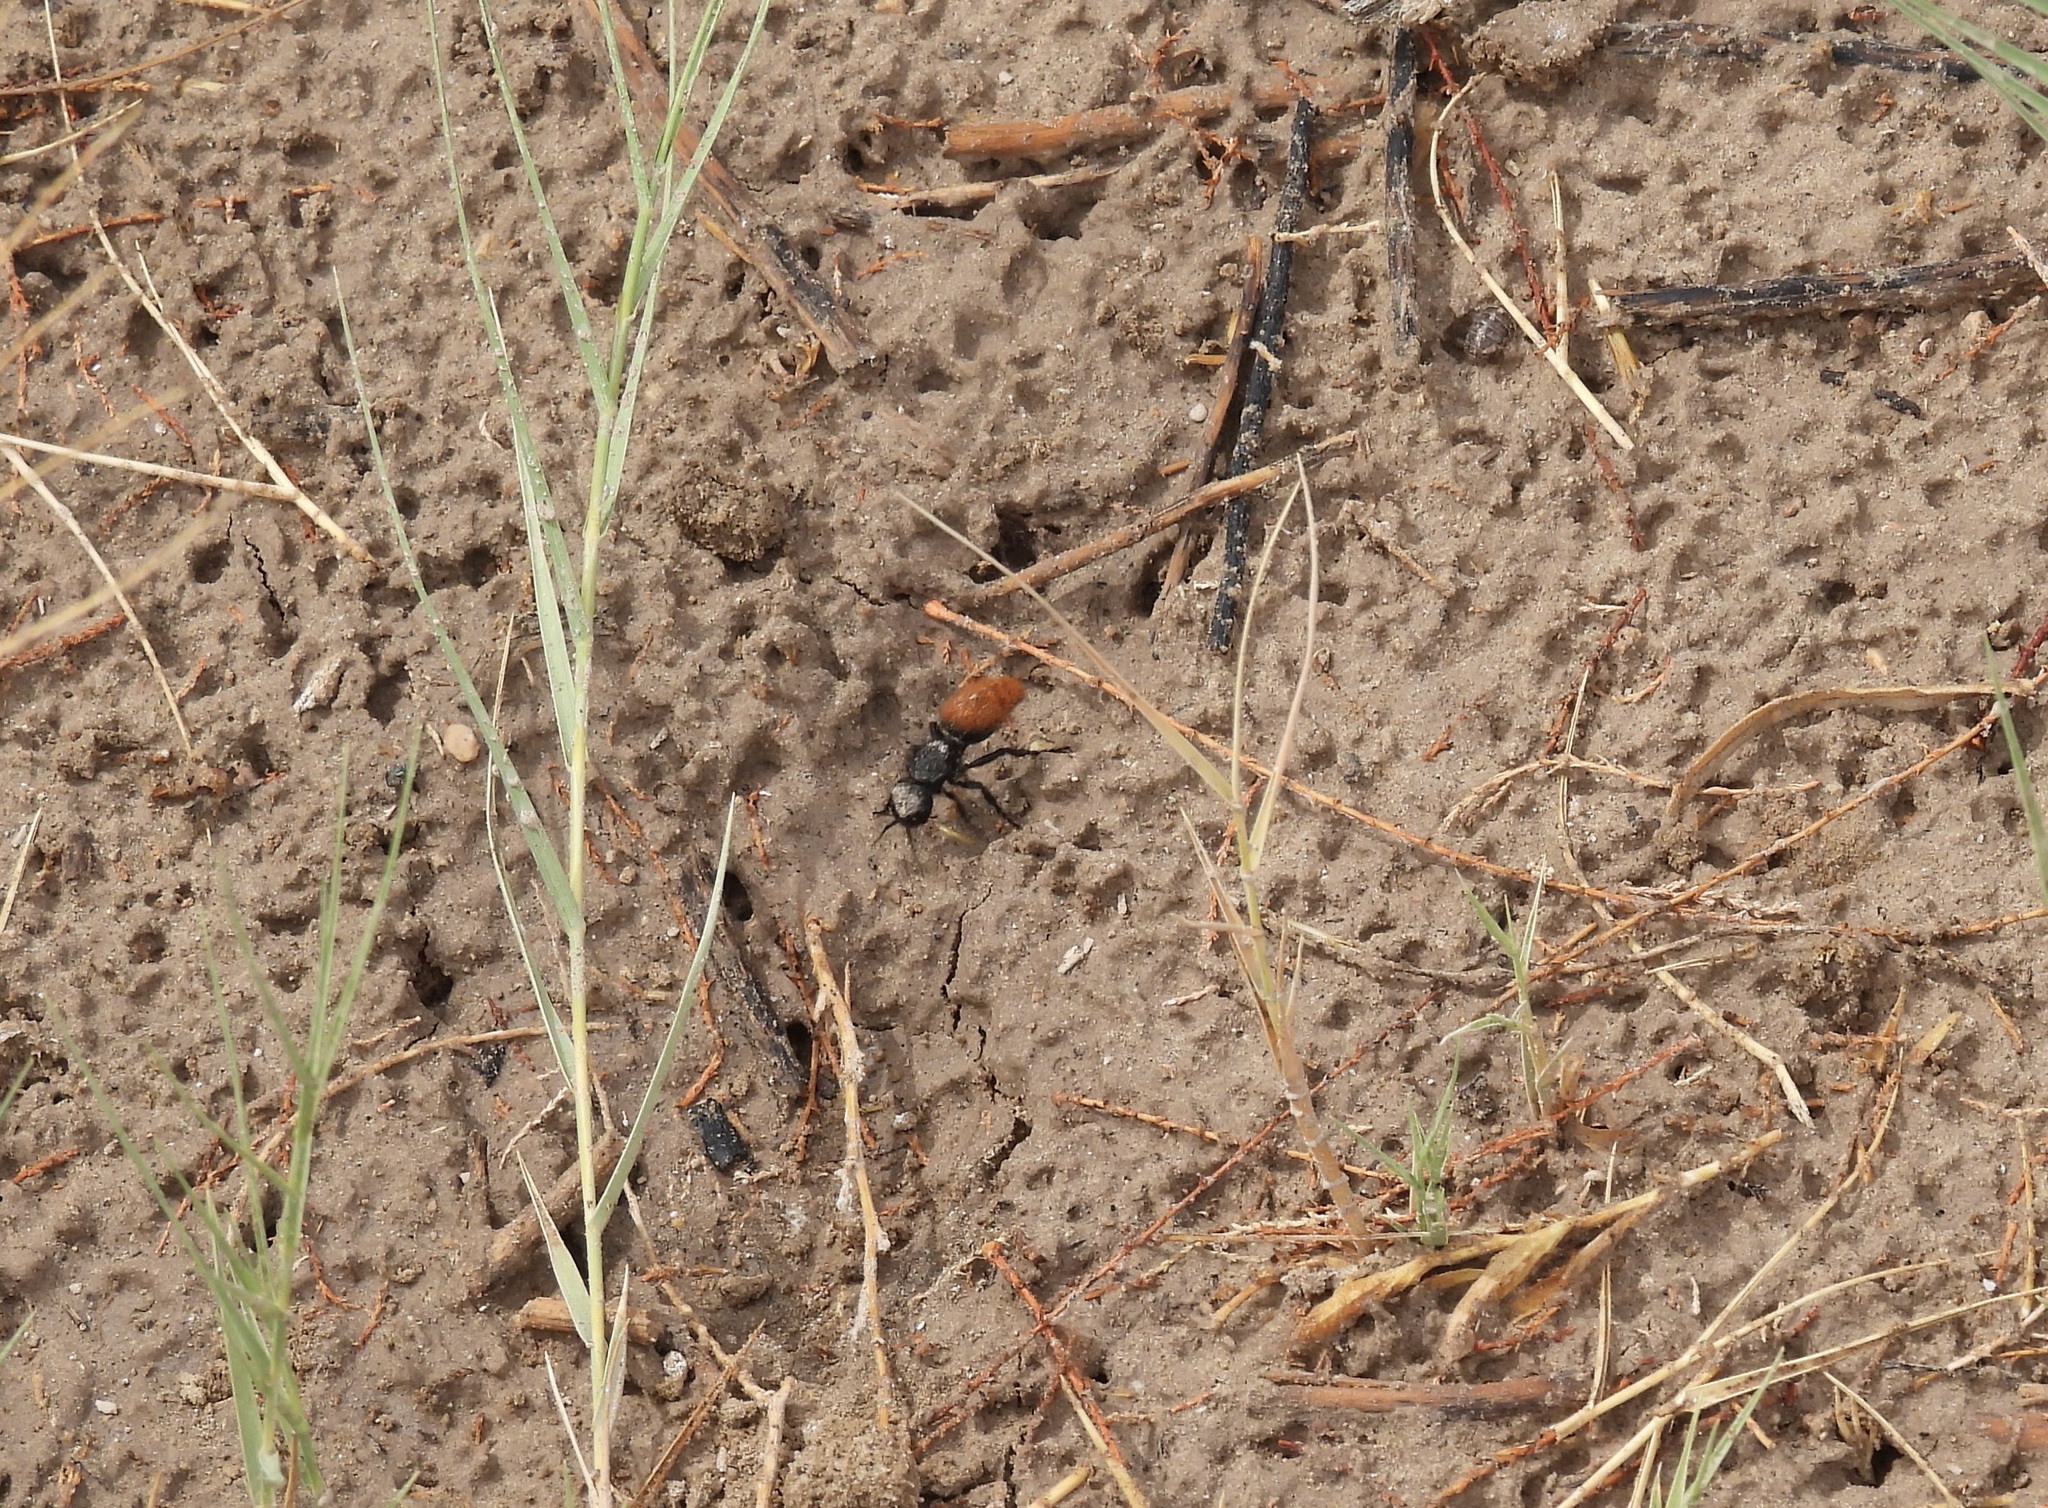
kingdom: Animalia
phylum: Arthropoda
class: Insecta
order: Hymenoptera
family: Mutillidae
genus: Dasymutilla
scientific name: Dasymutilla gorgon
